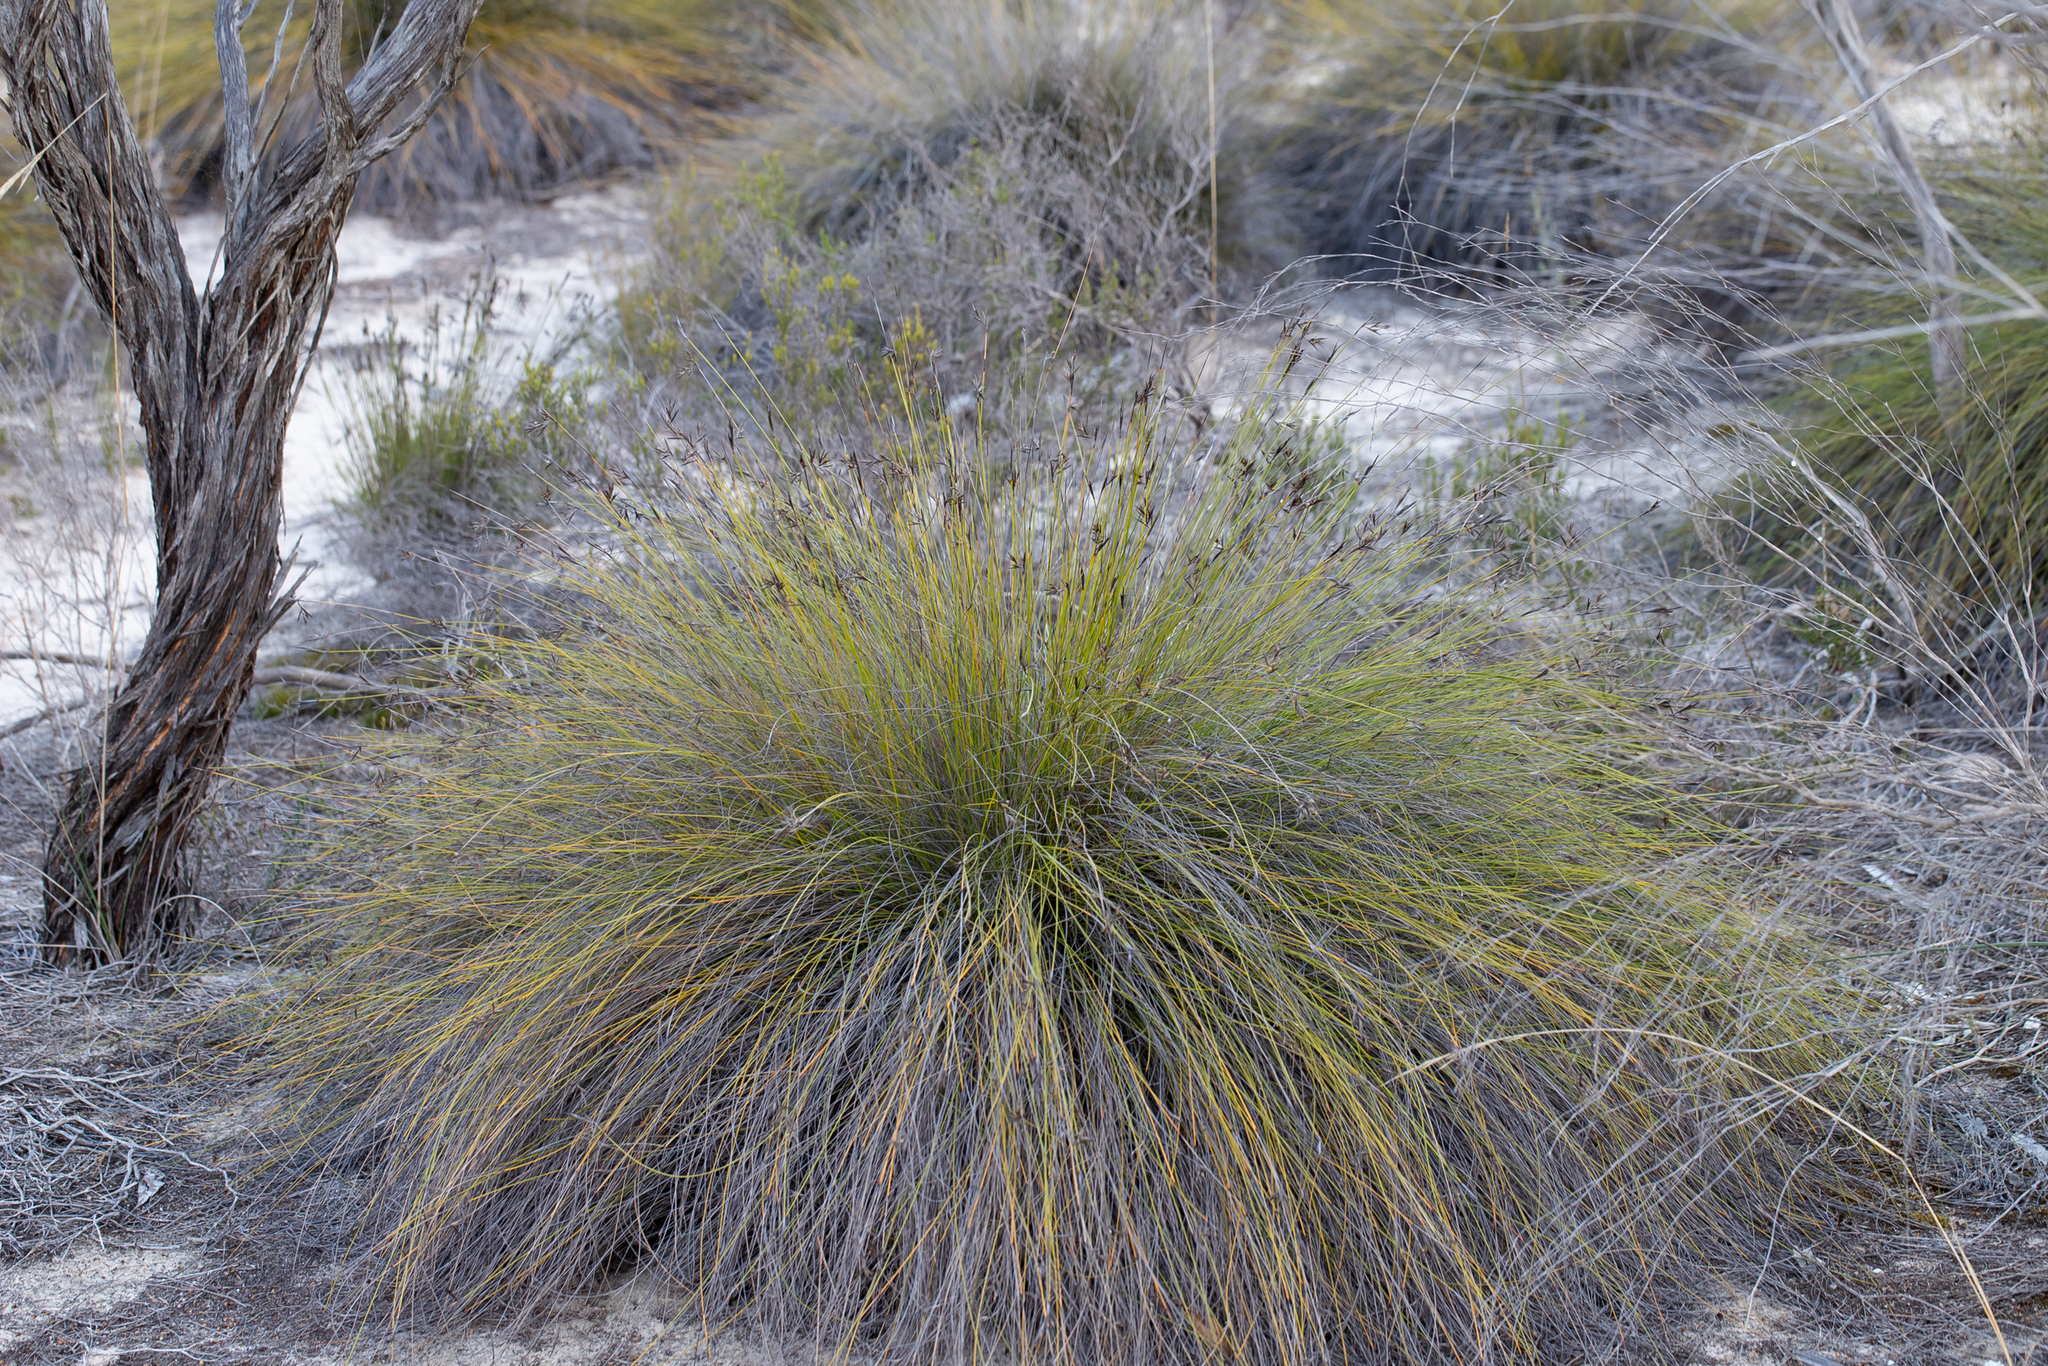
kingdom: Plantae
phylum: Tracheophyta
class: Liliopsida
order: Poales
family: Cyperaceae
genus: Lepidosperma
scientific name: Lepidosperma carphoides
